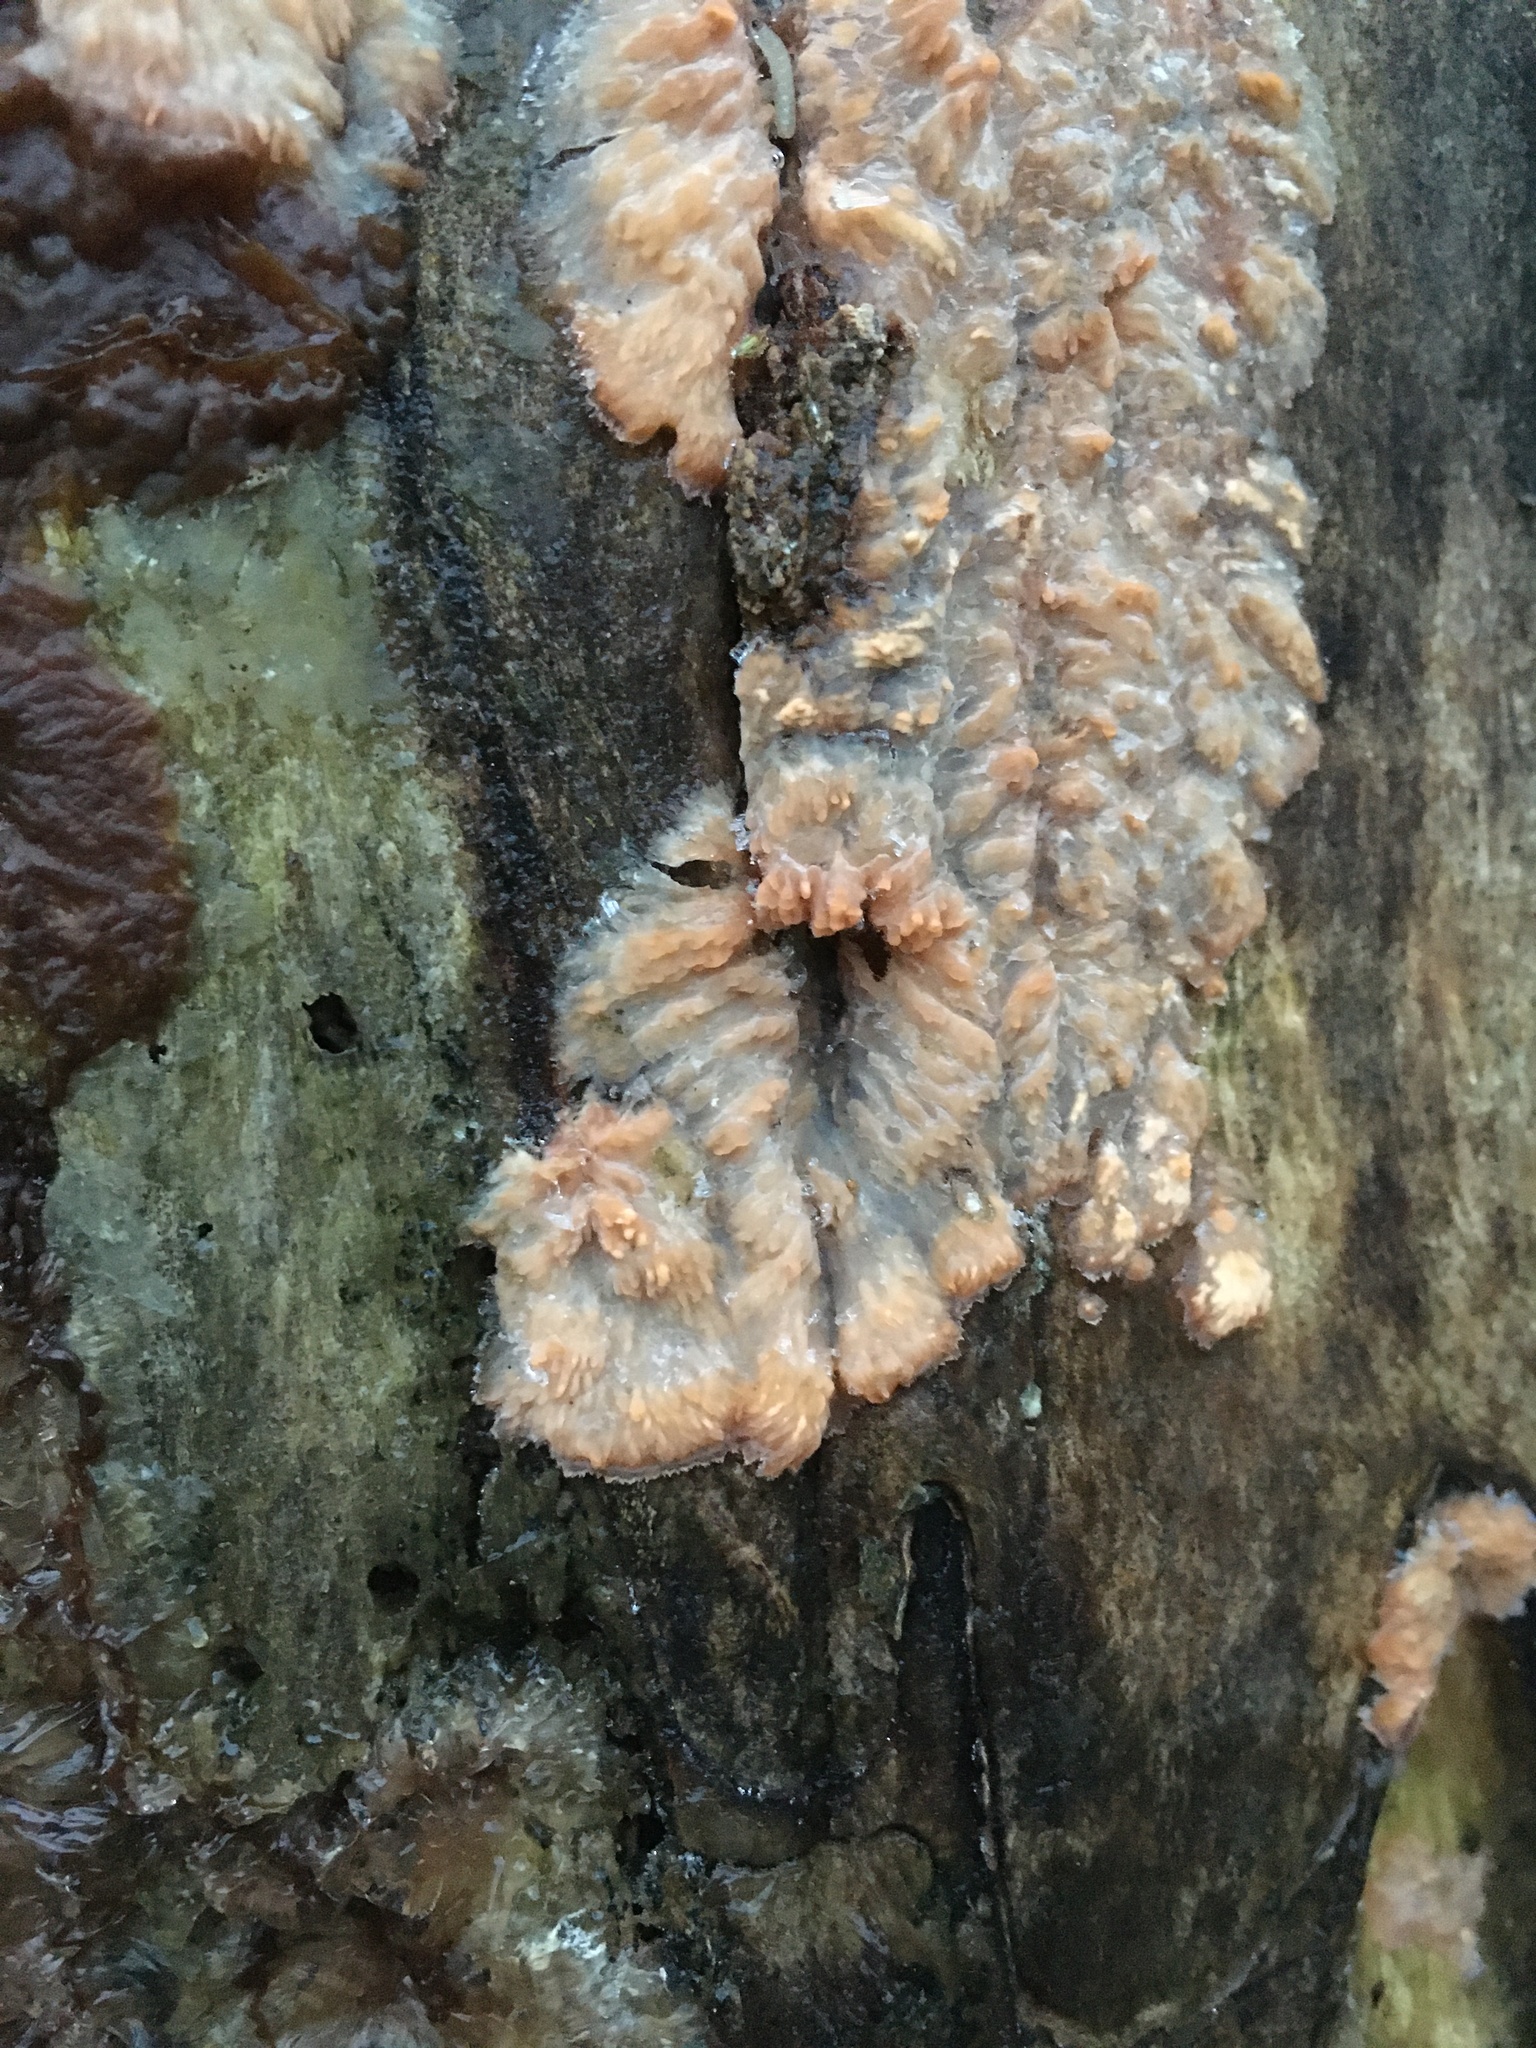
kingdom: Fungi
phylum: Basidiomycota
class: Agaricomycetes
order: Polyporales
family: Meruliaceae
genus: Phlebia
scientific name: Phlebia radiata
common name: Wrinkled crust
